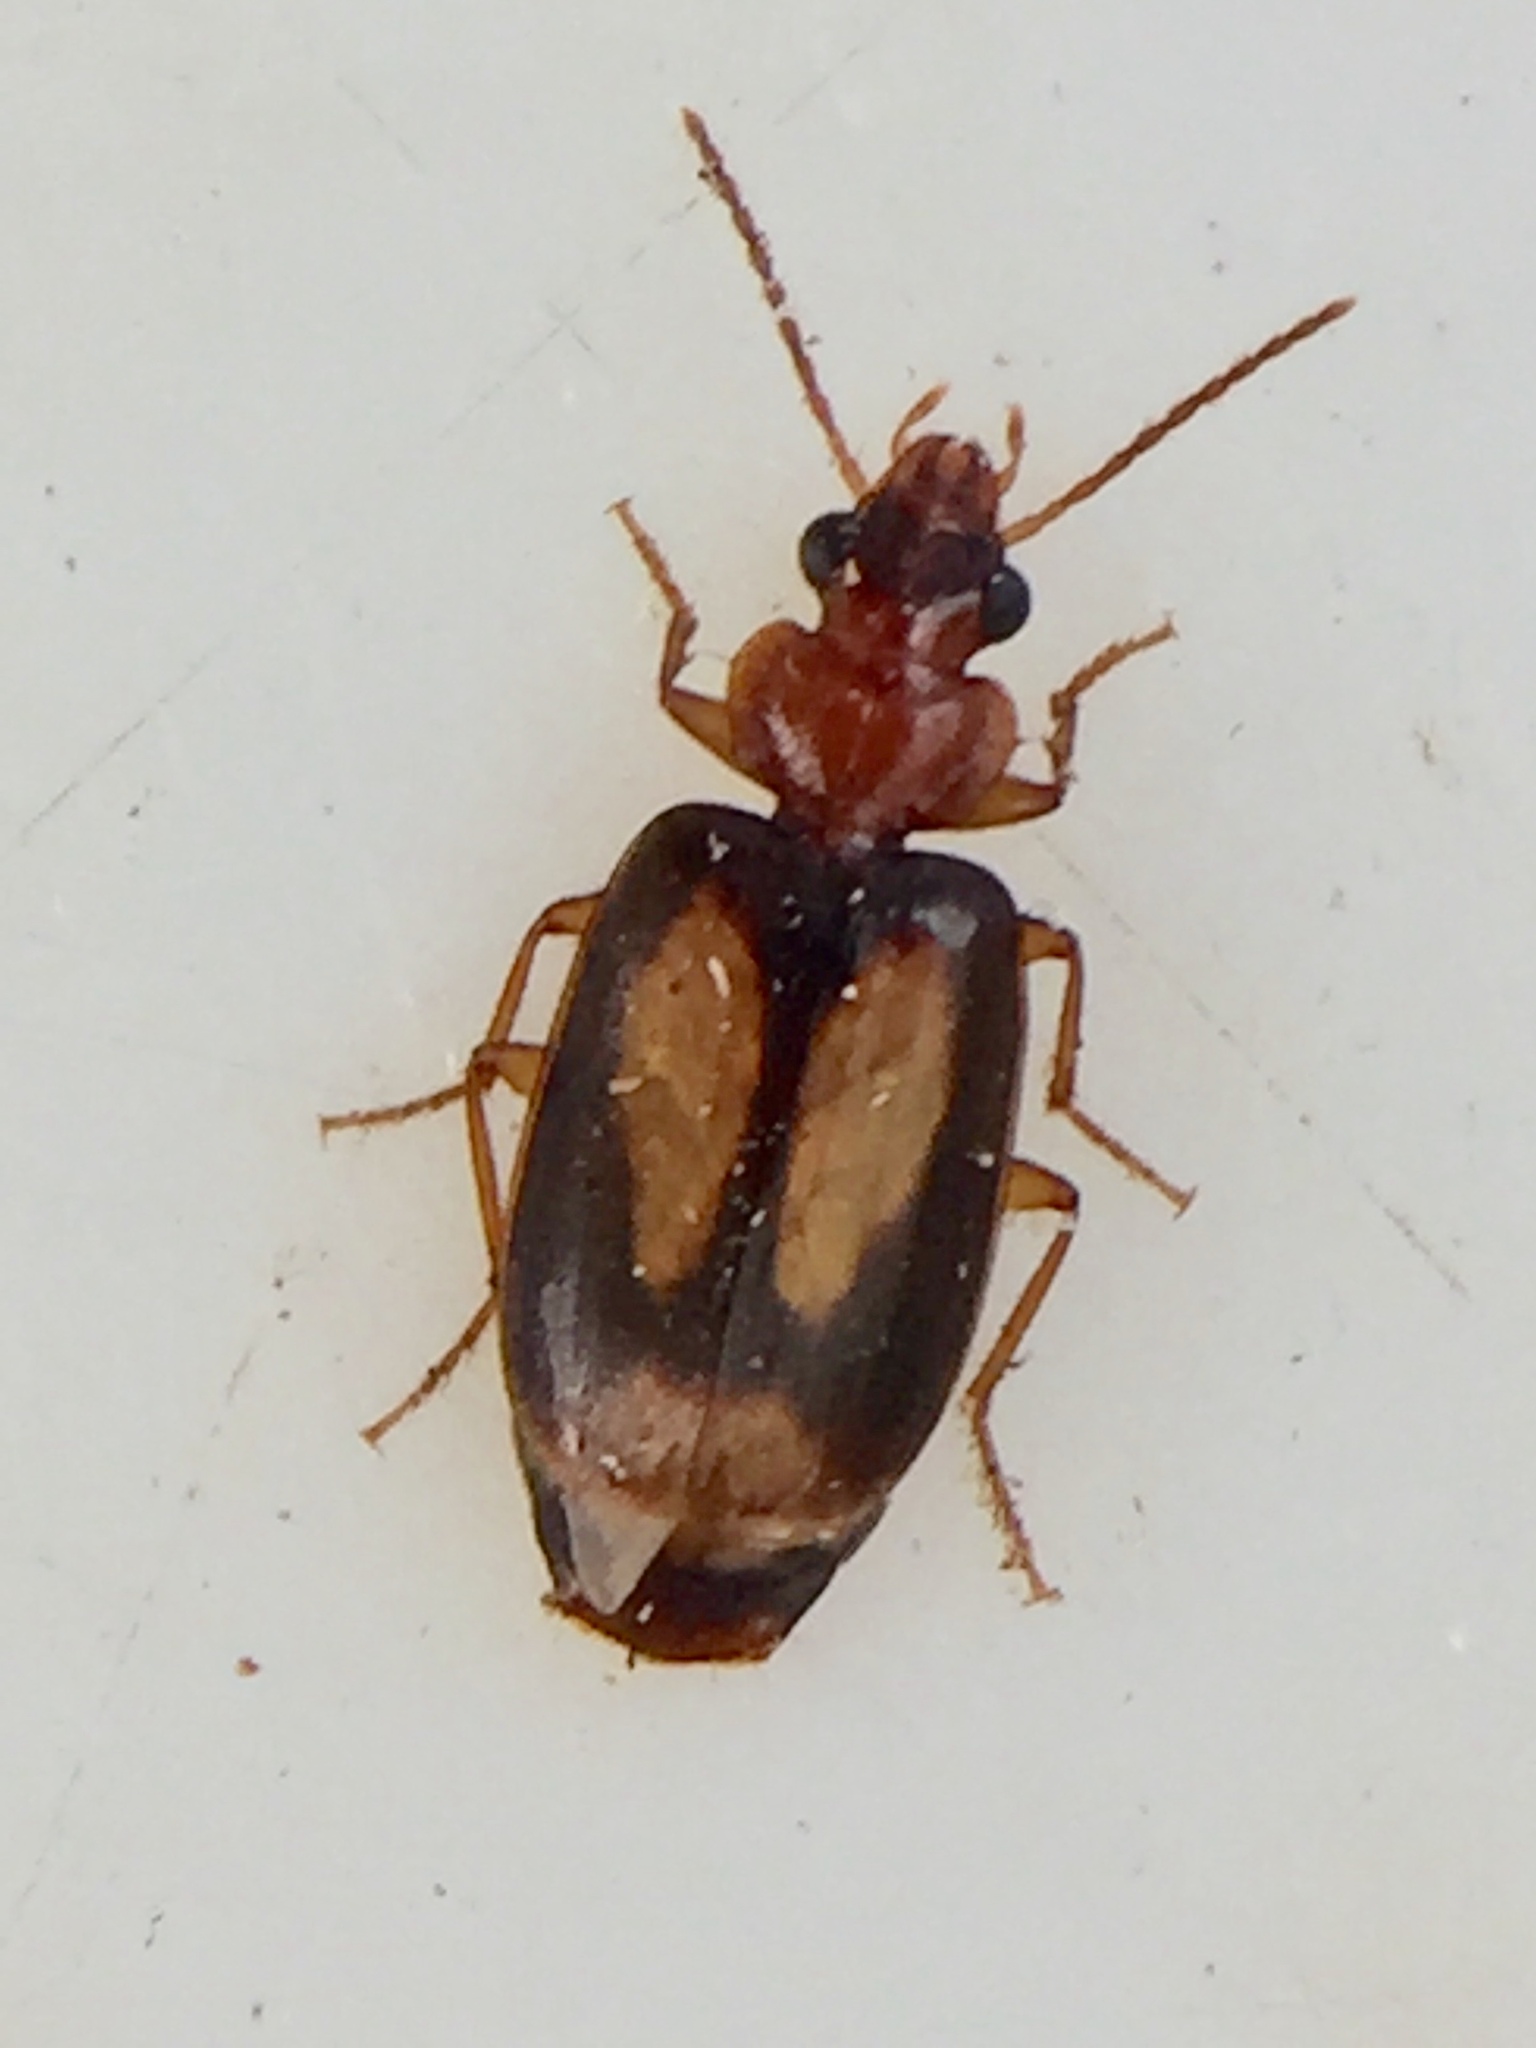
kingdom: Animalia
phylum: Arthropoda
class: Insecta
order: Coleoptera
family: Carabidae
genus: Agonocheila
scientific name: Agonocheila antipodum
